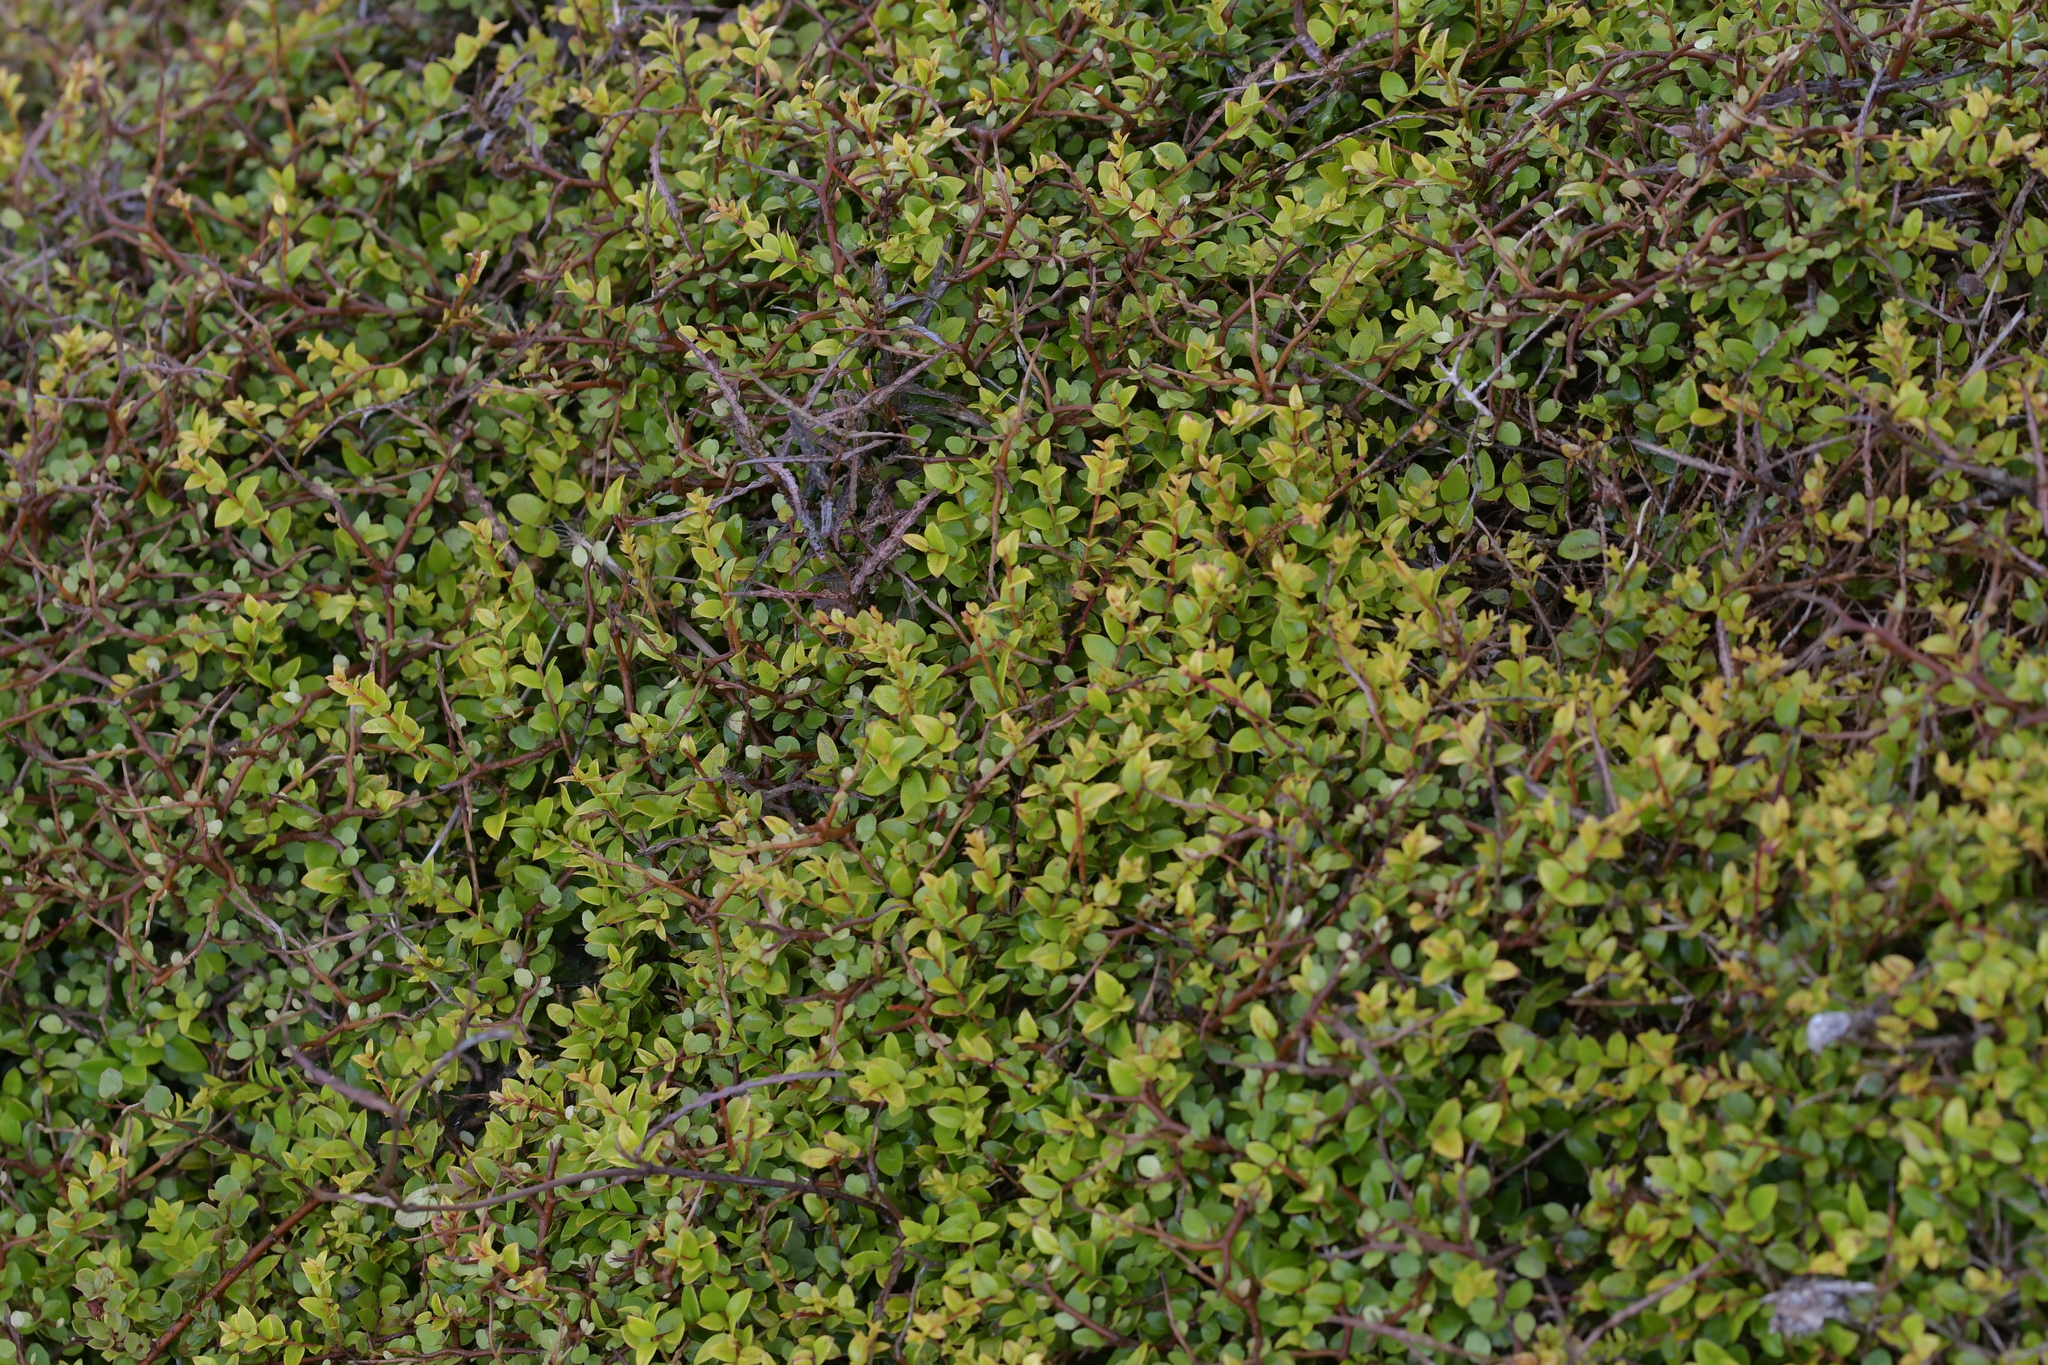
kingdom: Plantae
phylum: Tracheophyta
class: Magnoliopsida
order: Myrtales
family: Myrtaceae
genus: Metrosideros
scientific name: Metrosideros diffusa
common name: Small ratavine
